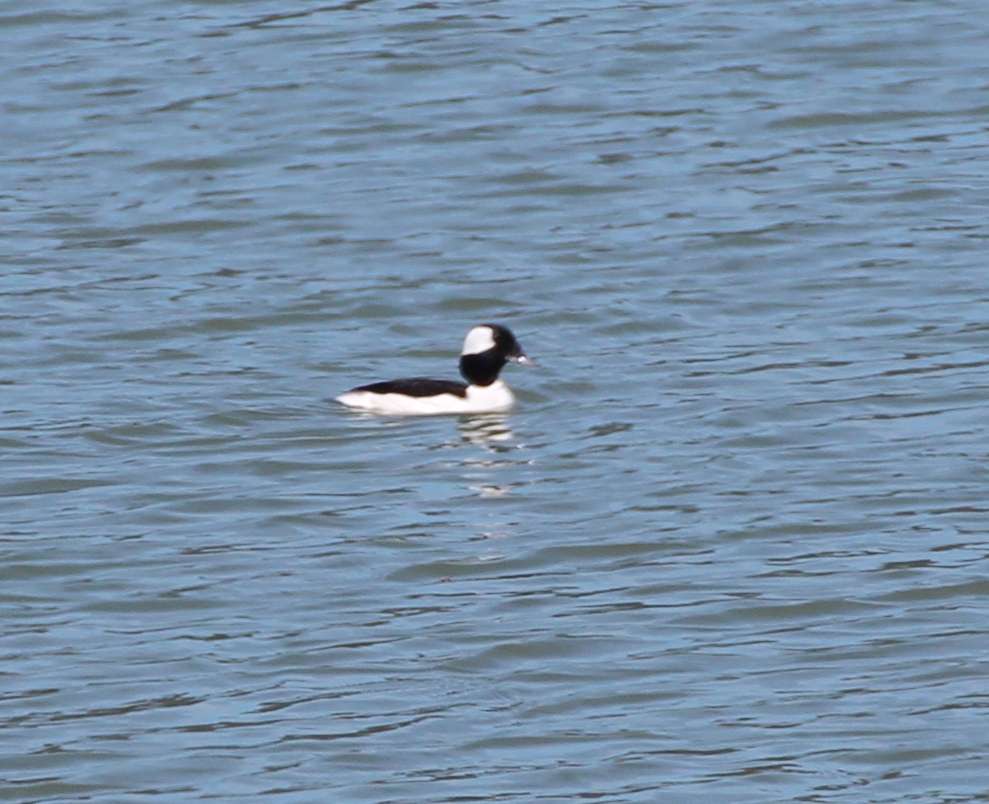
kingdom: Animalia
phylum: Chordata
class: Aves
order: Anseriformes
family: Anatidae
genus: Bucephala
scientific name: Bucephala albeola
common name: Bufflehead
